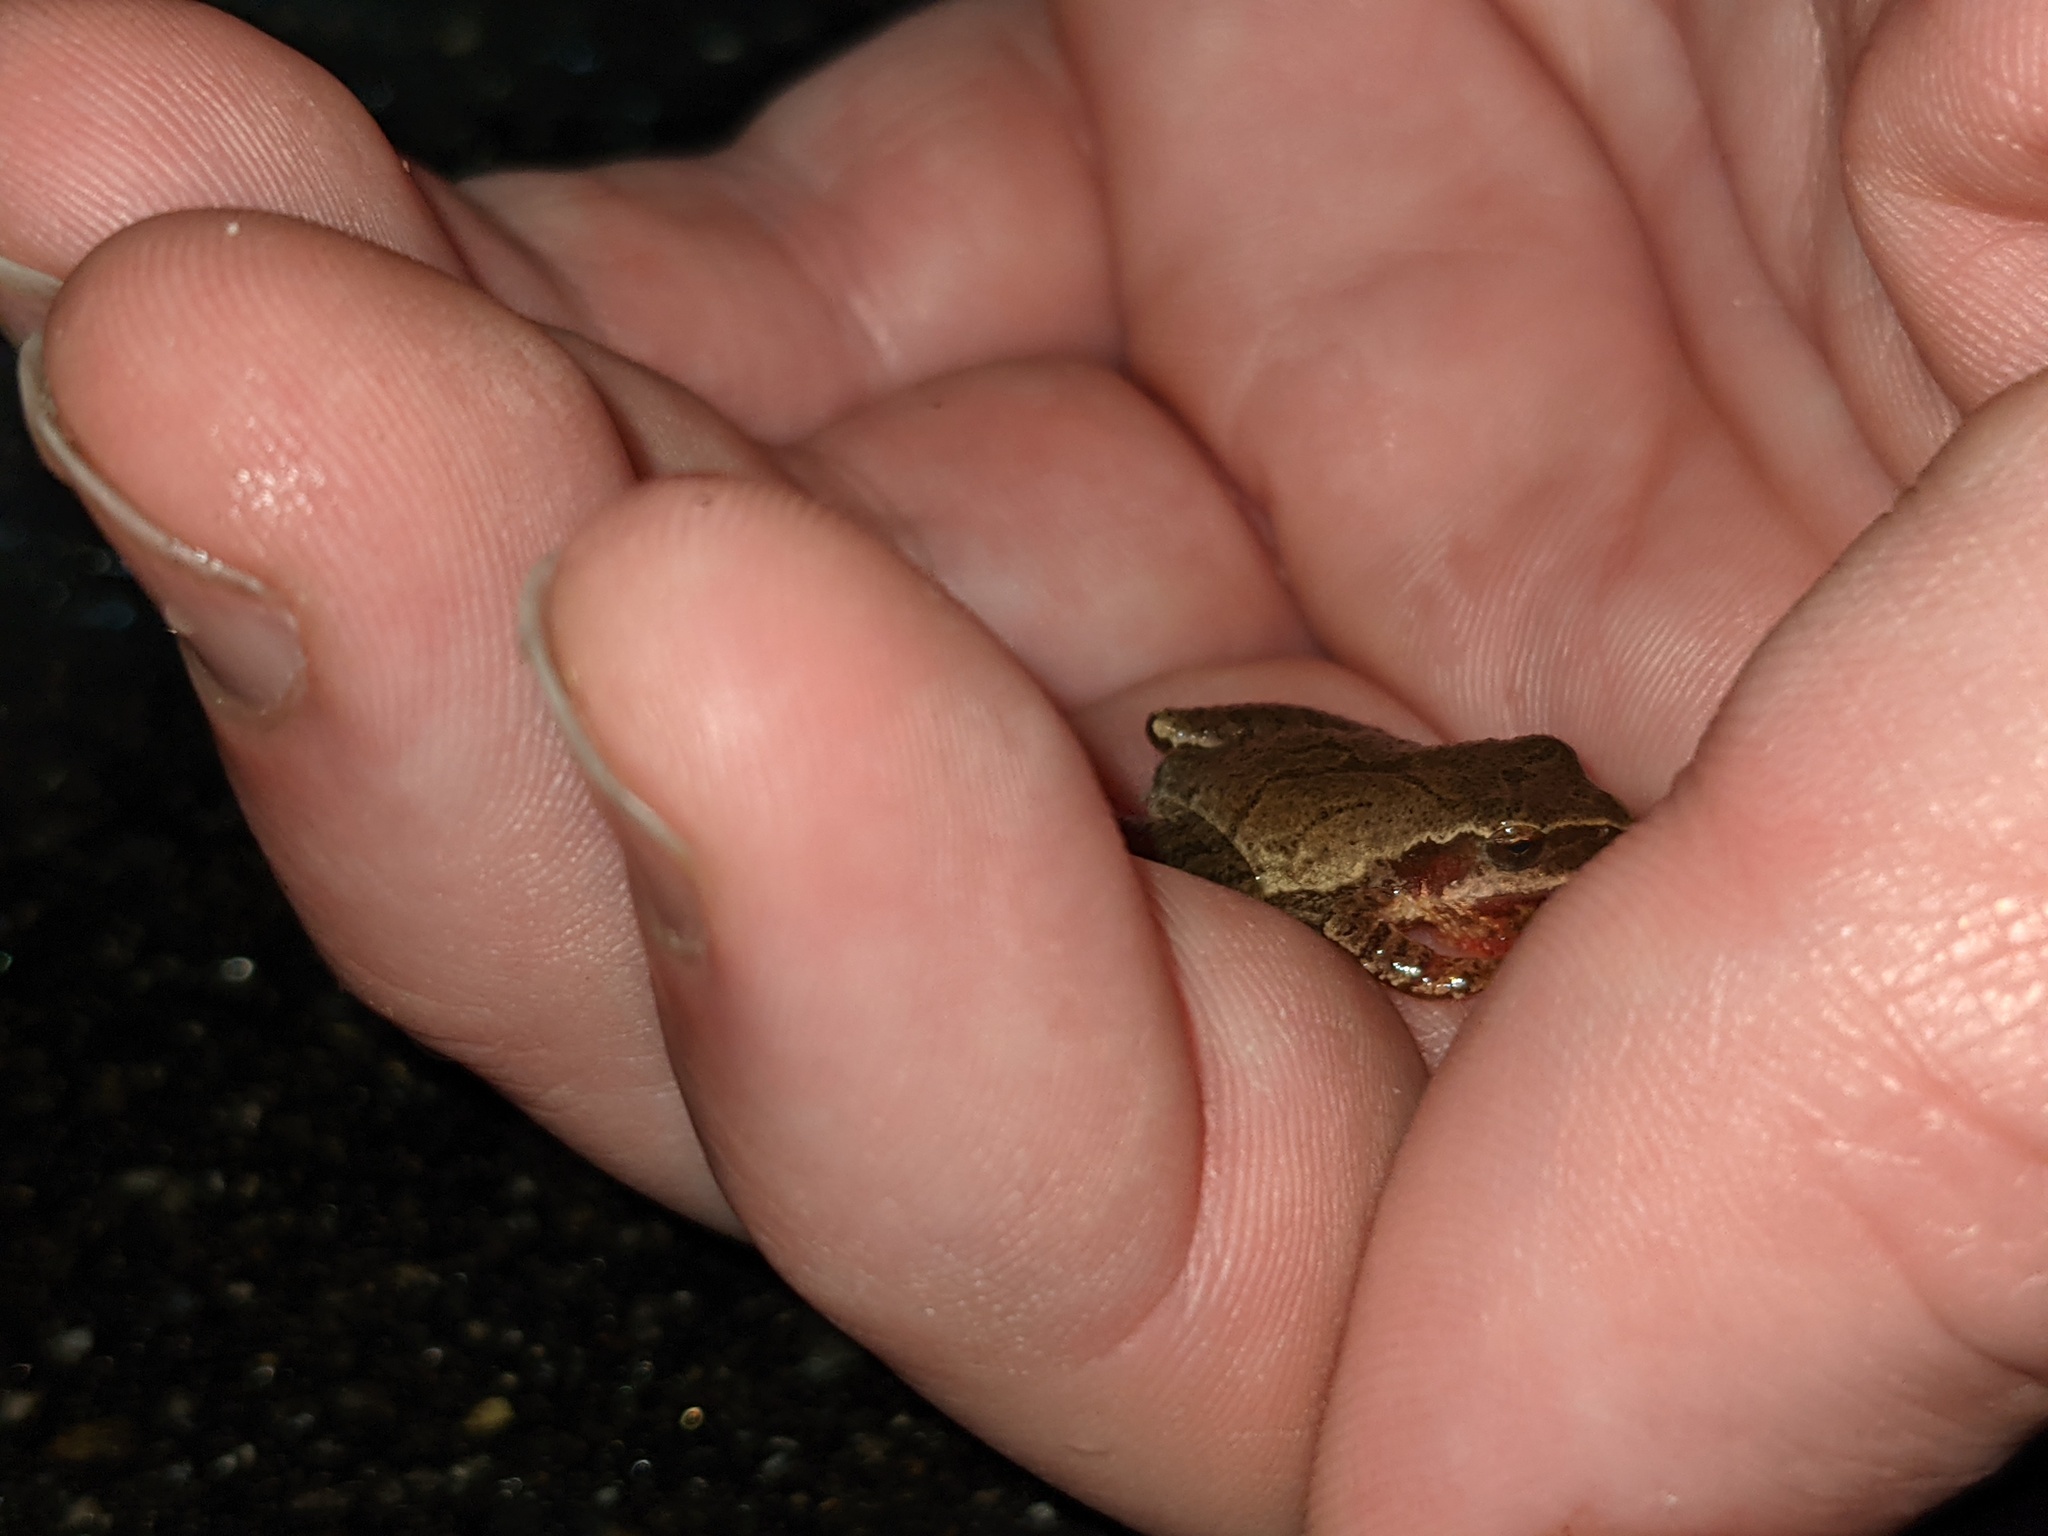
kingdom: Animalia
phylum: Chordata
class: Amphibia
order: Anura
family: Hylidae
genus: Pseudacris
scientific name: Pseudacris crucifer
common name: Spring peeper
